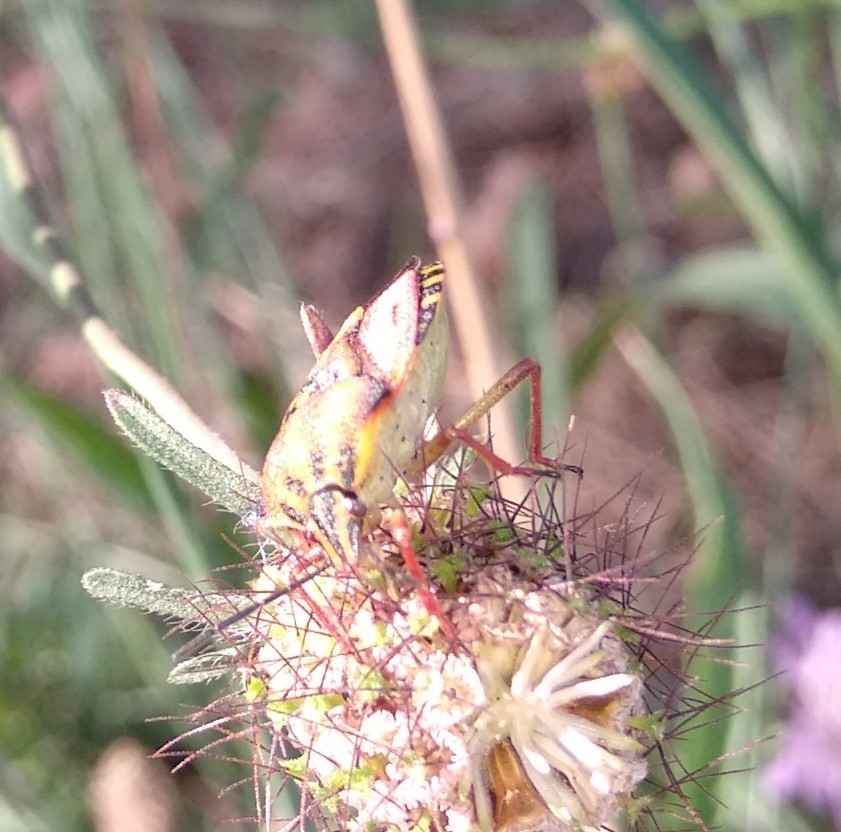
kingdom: Animalia
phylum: Arthropoda
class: Insecta
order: Hemiptera
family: Pentatomidae
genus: Carpocoris
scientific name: Carpocoris mediterraneus
